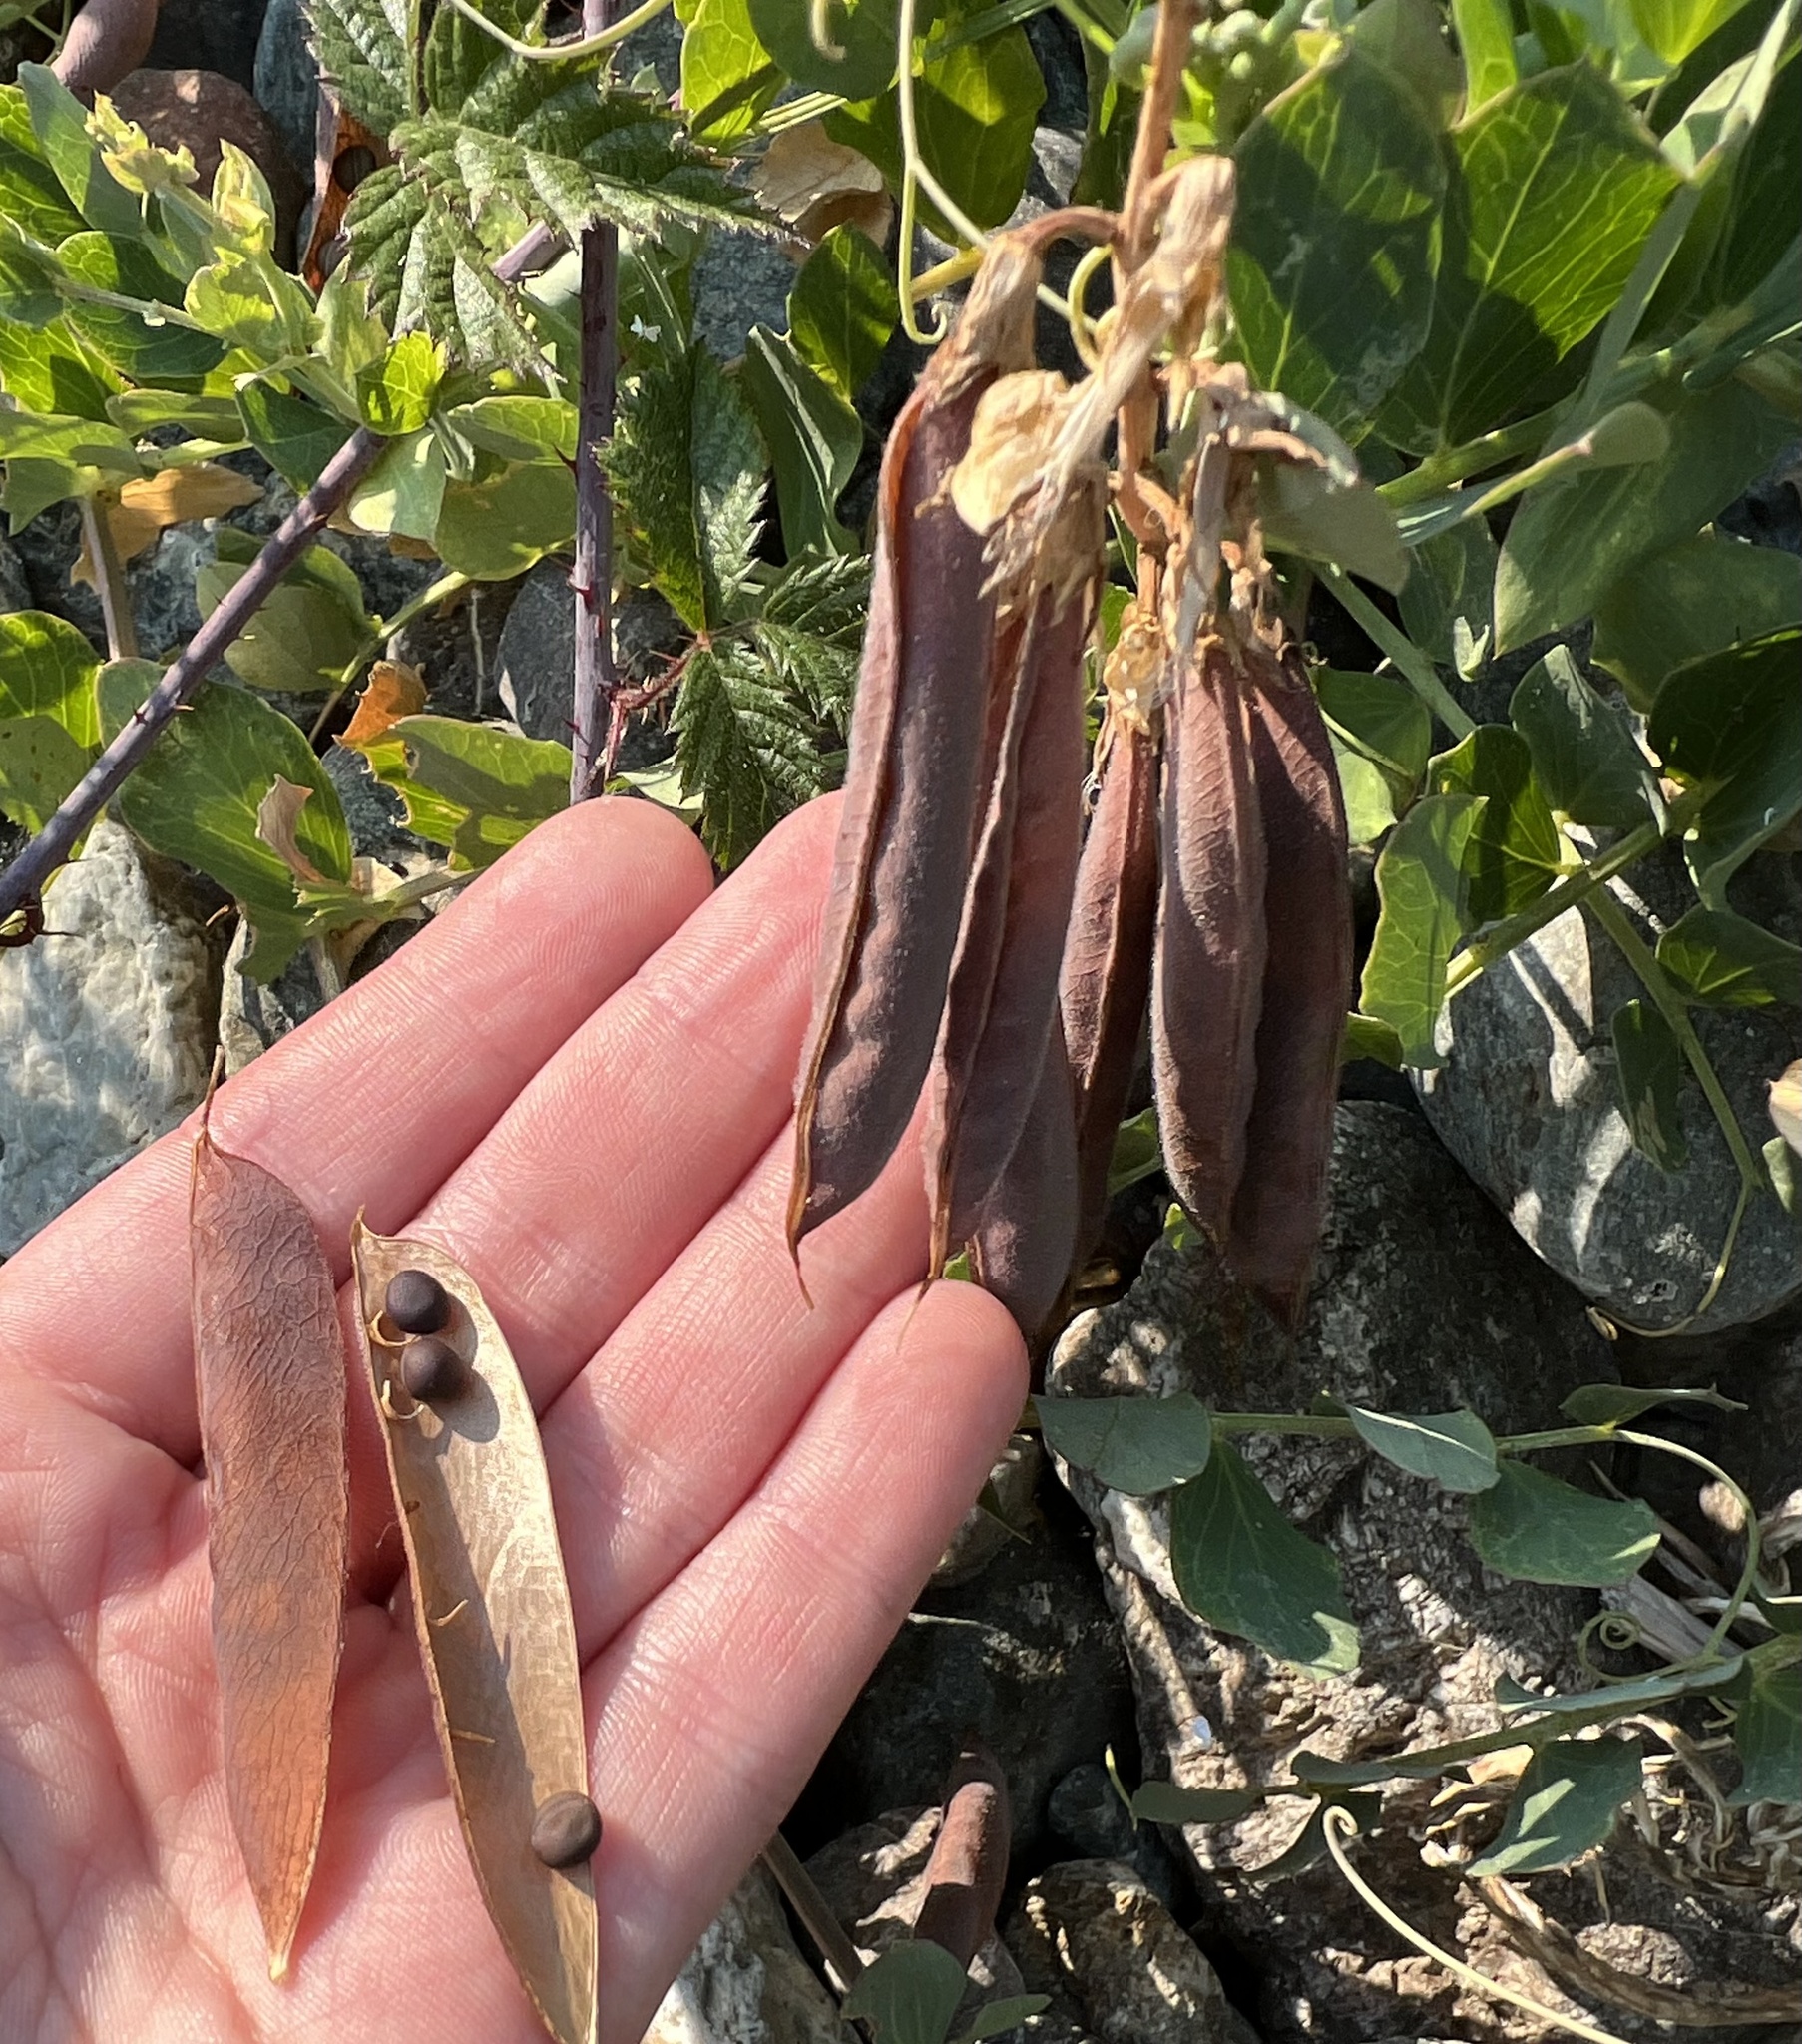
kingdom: Plantae
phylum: Tracheophyta
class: Magnoliopsida
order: Fabales
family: Fabaceae
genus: Lathyrus
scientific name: Lathyrus japonicus
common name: Sea pea
